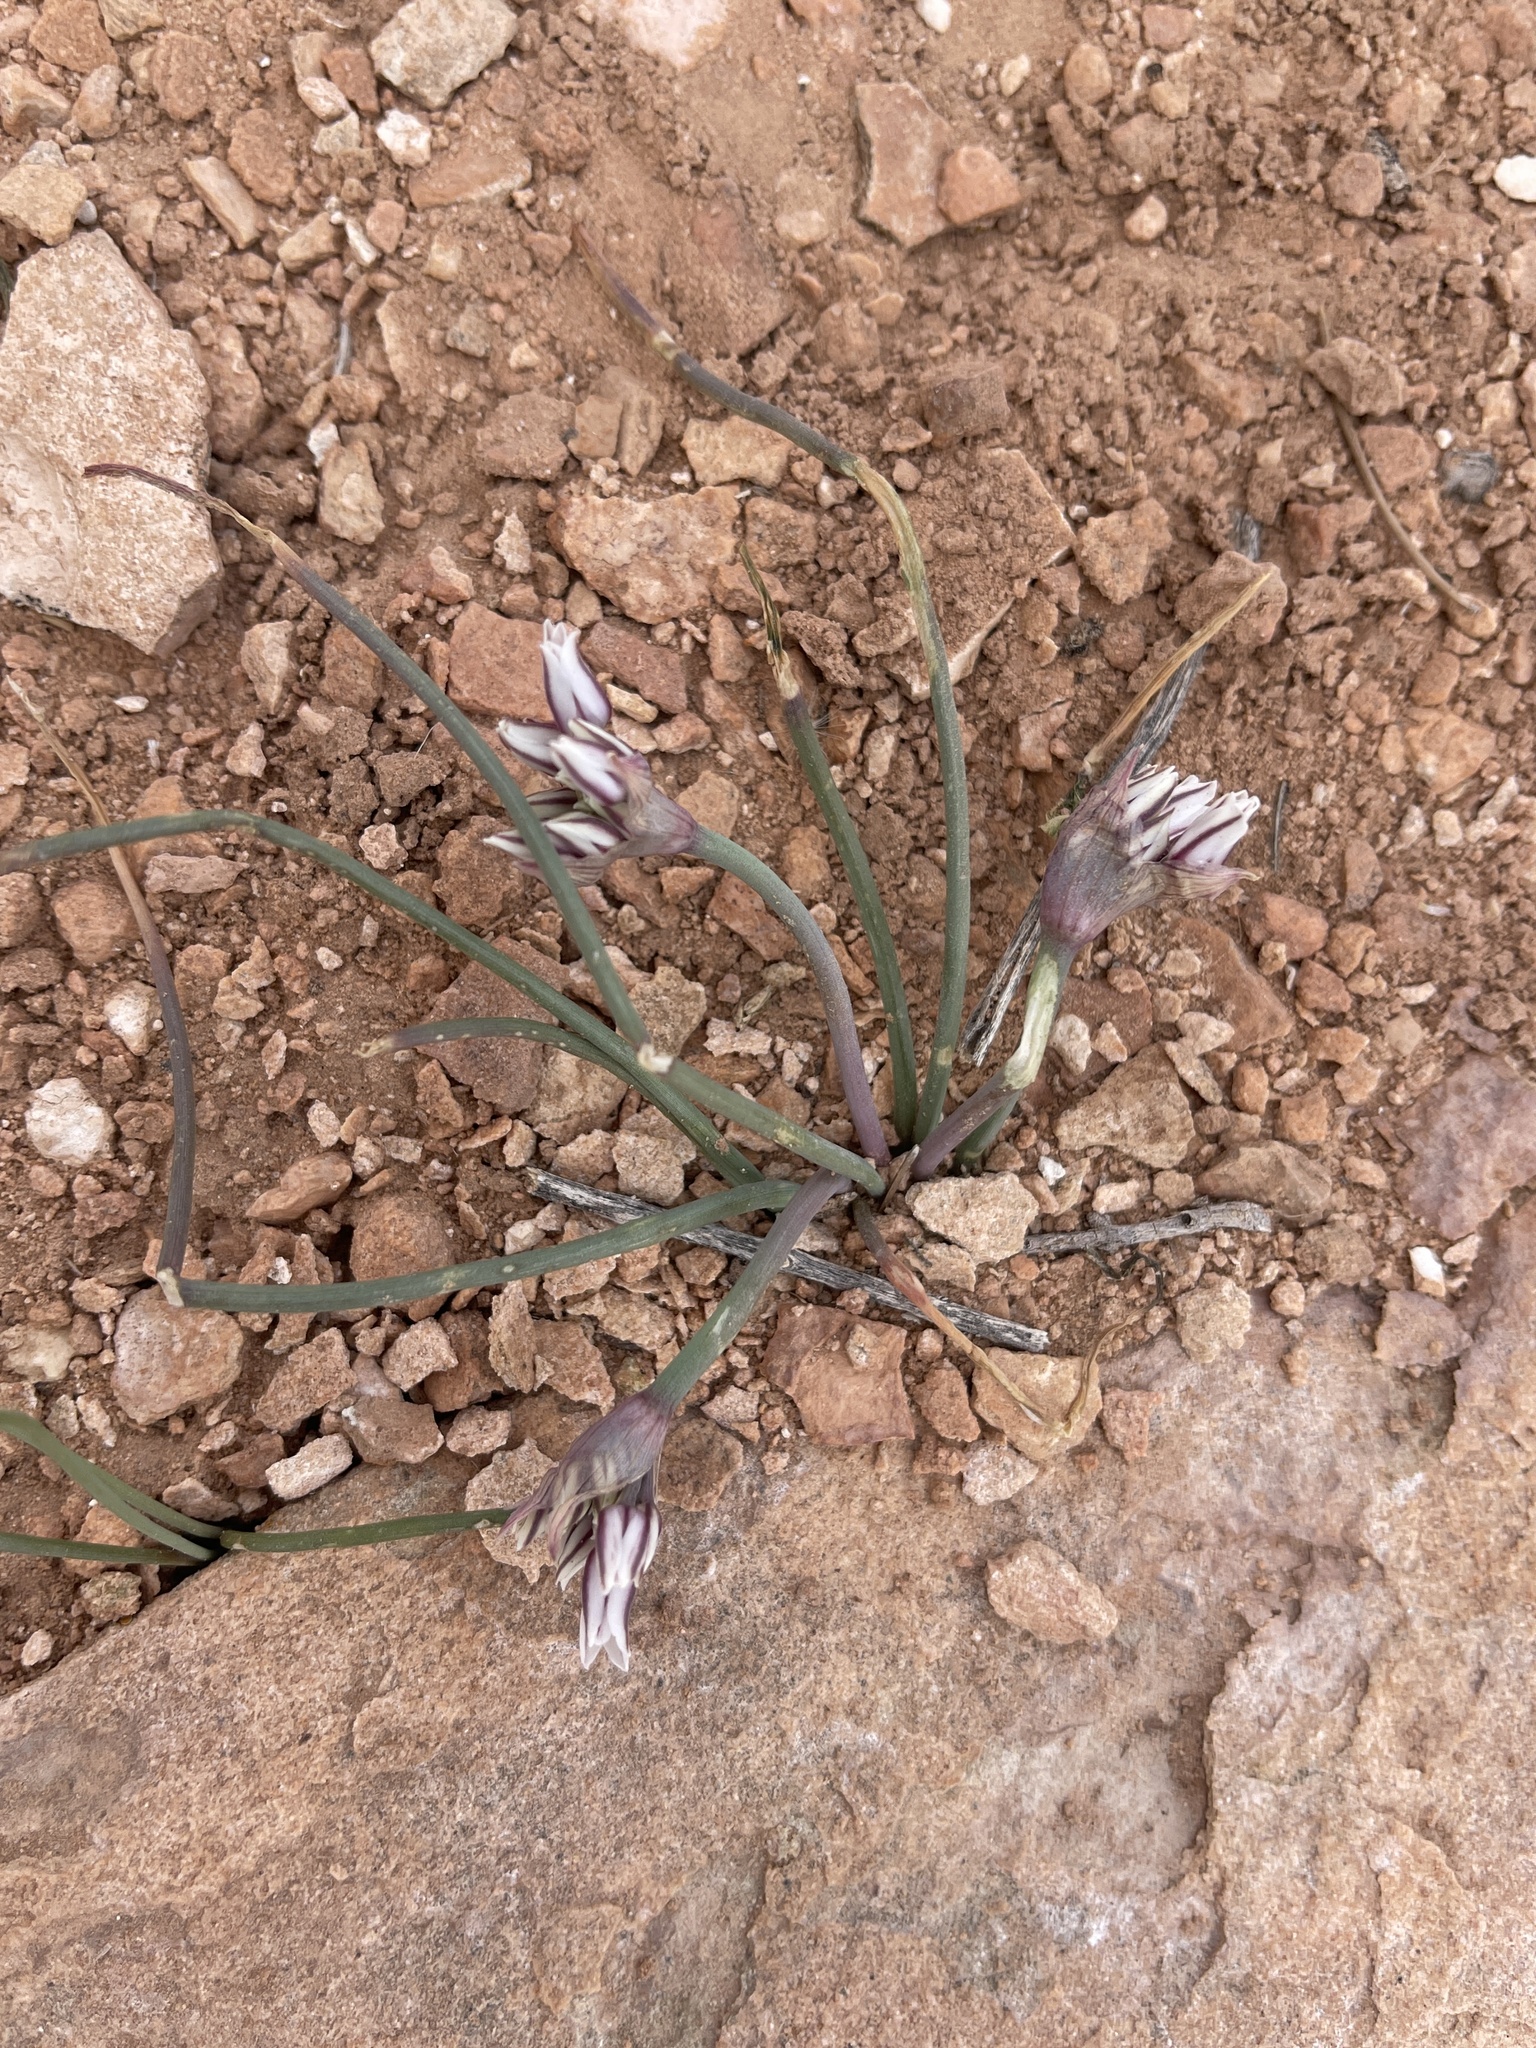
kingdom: Plantae
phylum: Tracheophyta
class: Liliopsida
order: Asparagales
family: Amaryllidaceae
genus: Allium
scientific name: Allium macropetalum
